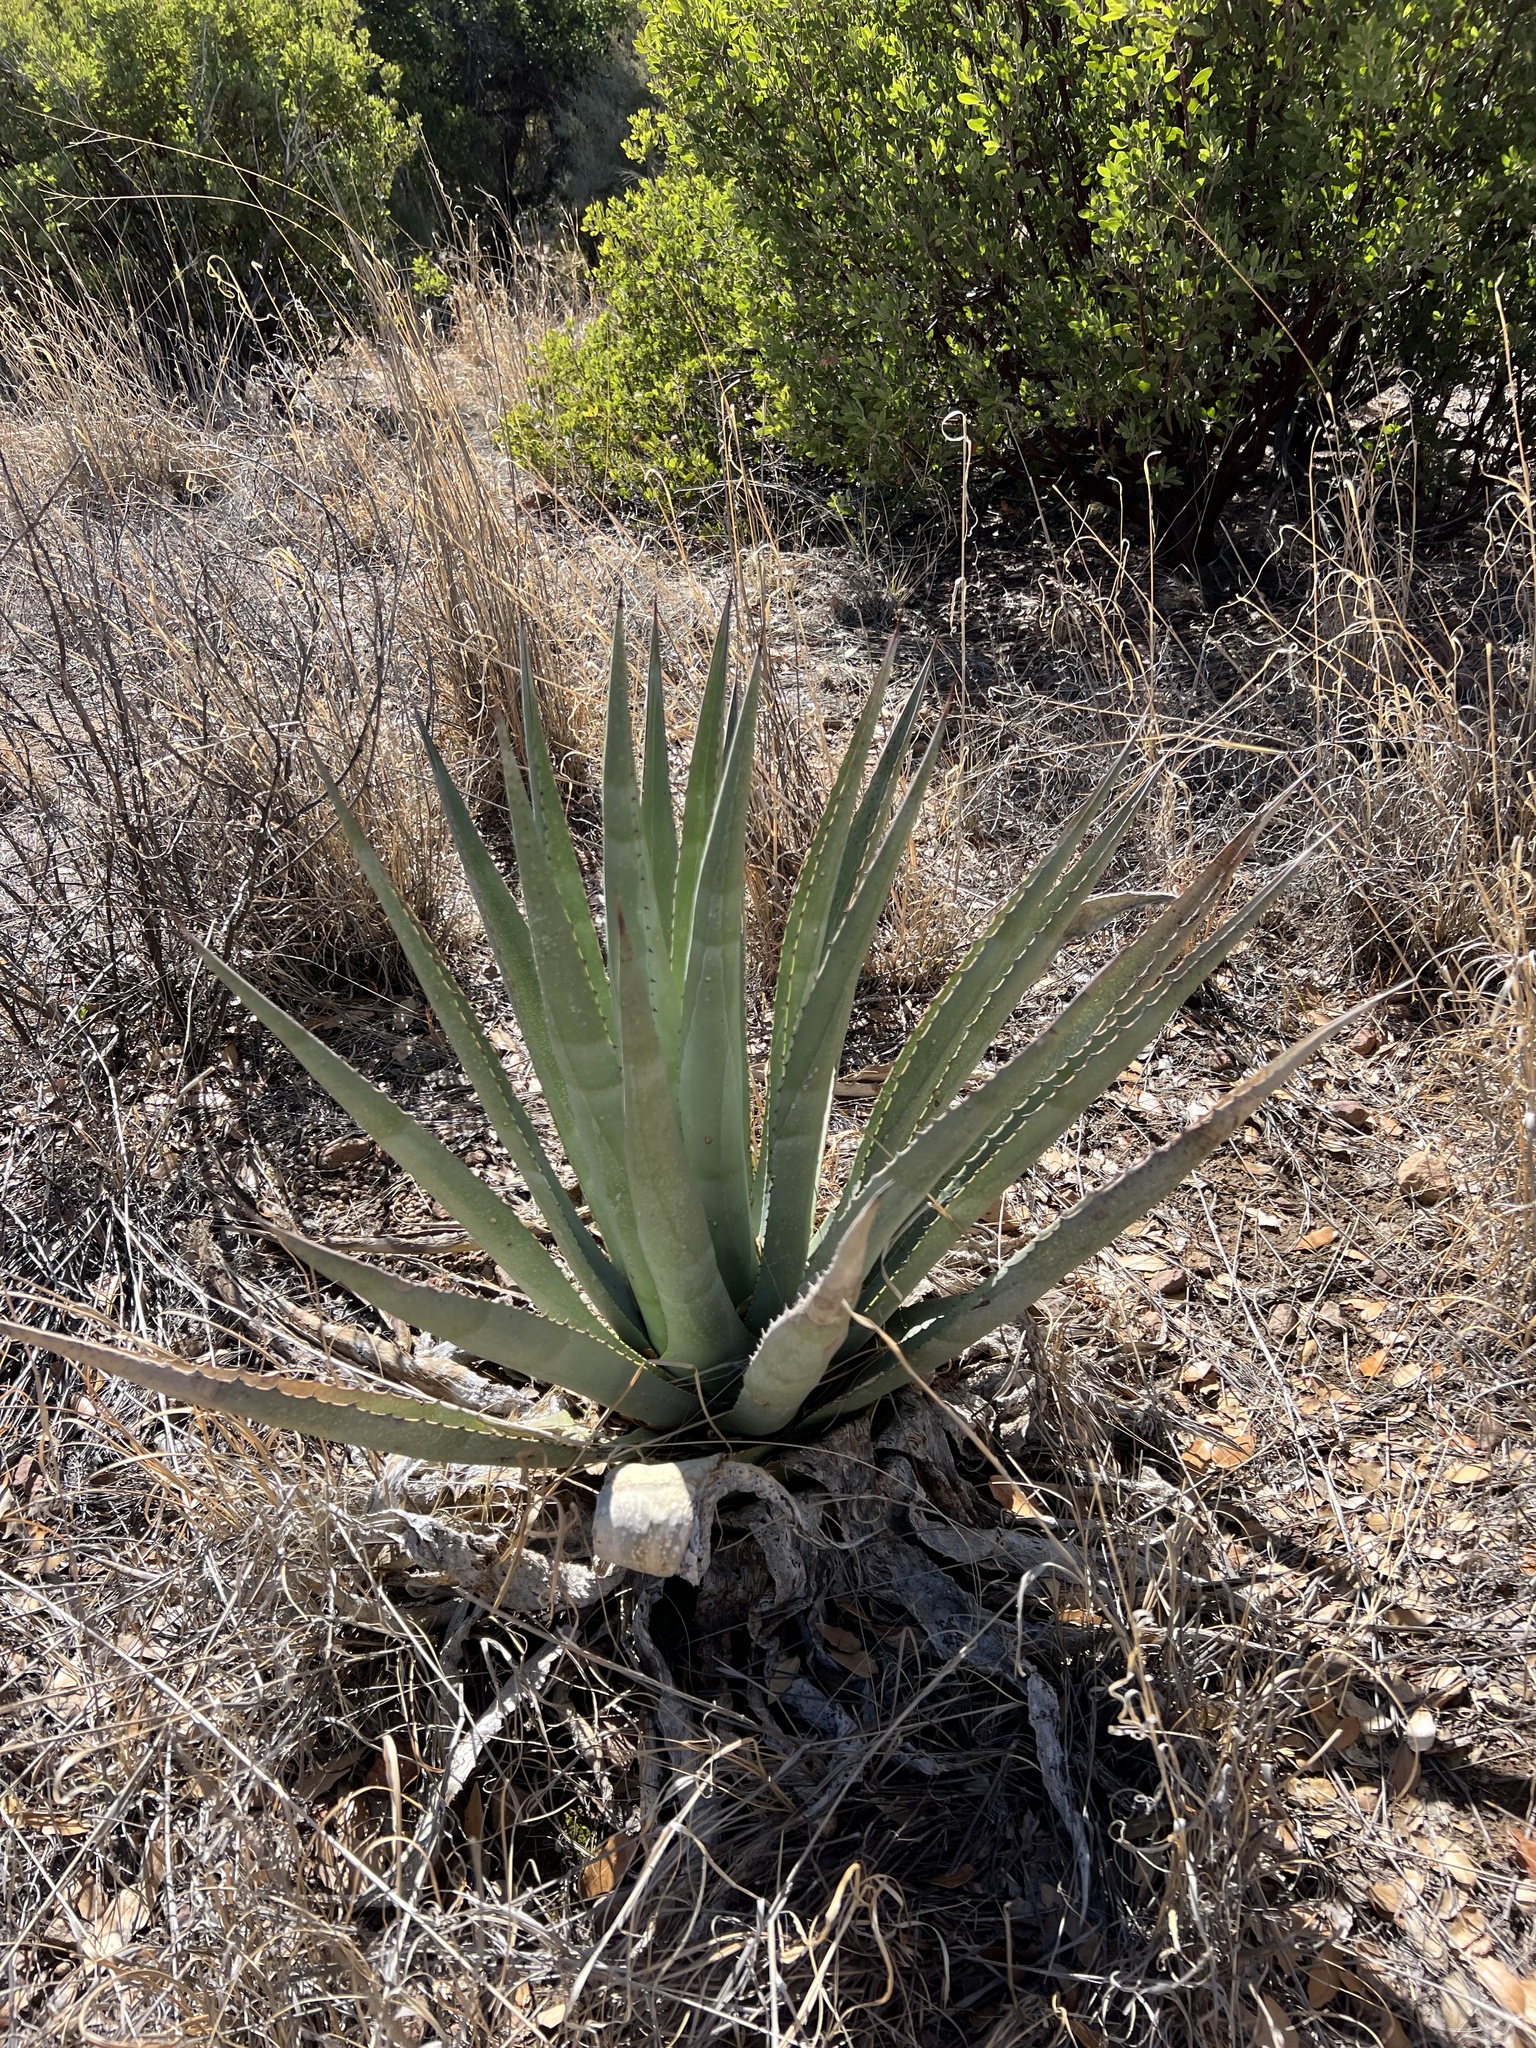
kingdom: Plantae
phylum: Tracheophyta
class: Liliopsida
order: Asparagales
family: Asparagaceae
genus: Agave
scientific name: Agave palmeri
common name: Palmer agave
